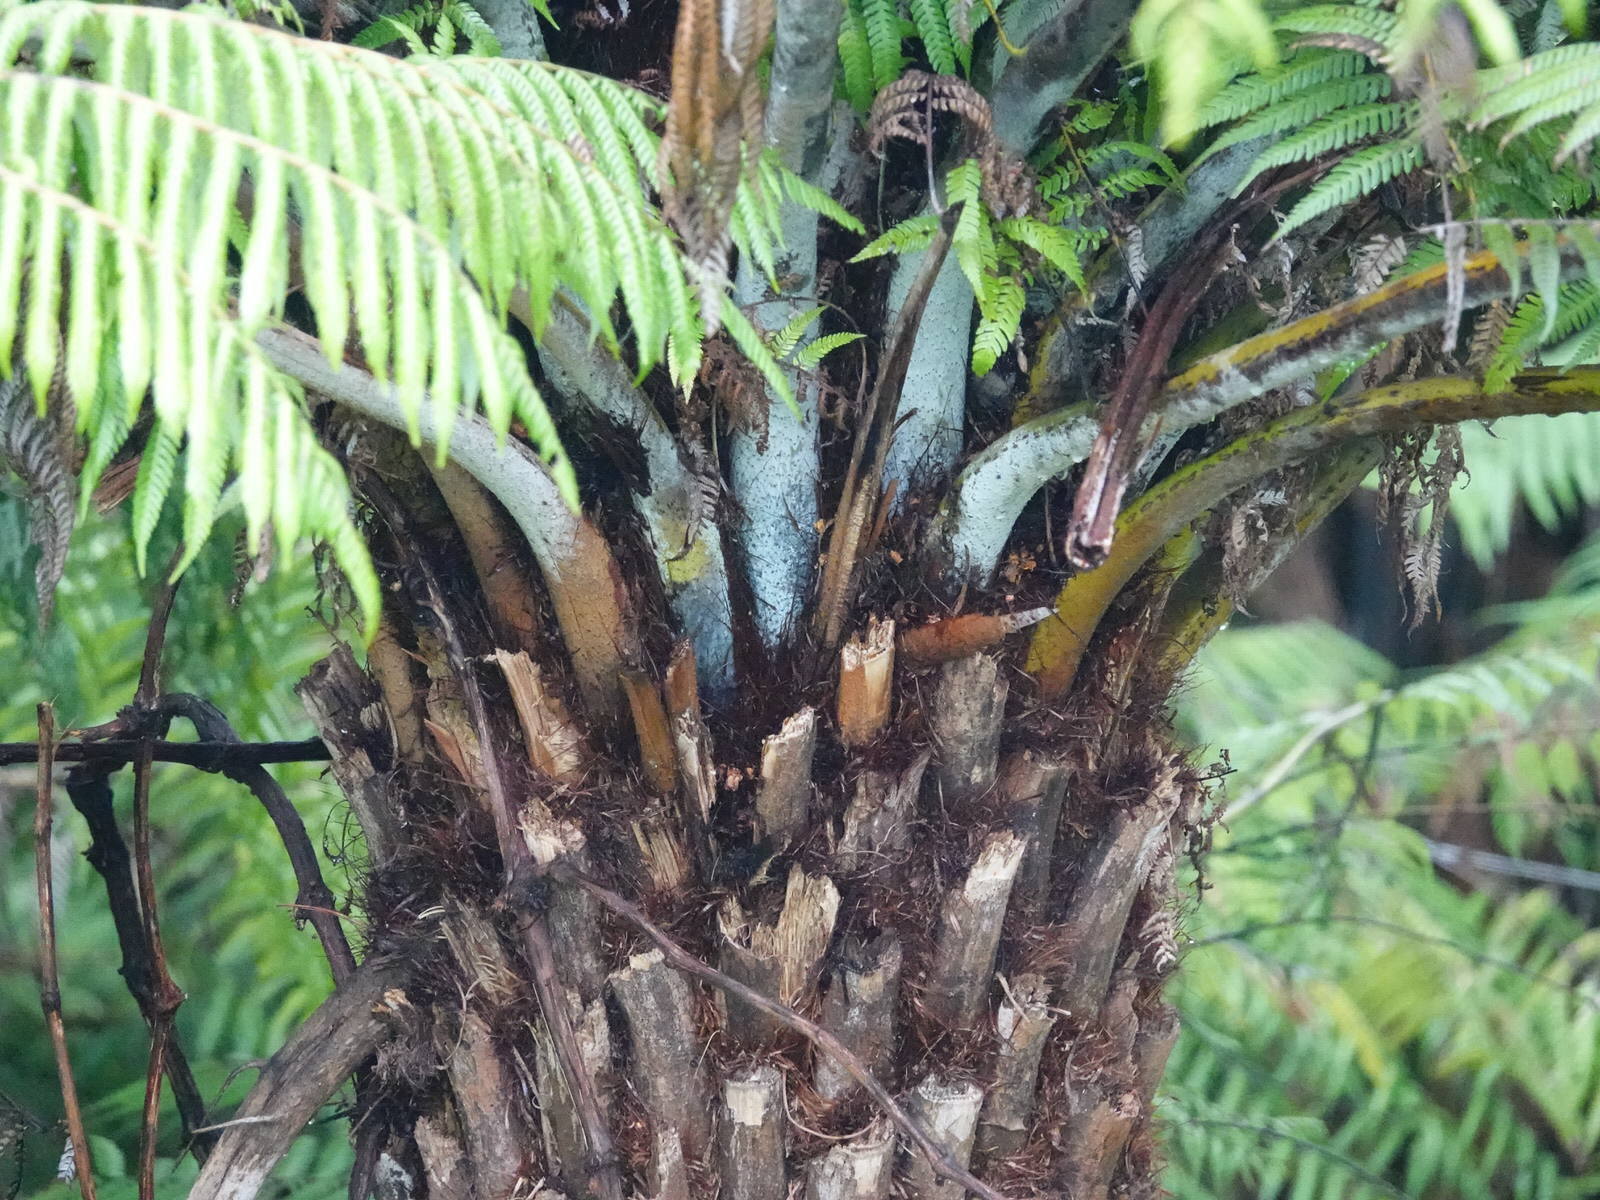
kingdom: Plantae
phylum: Tracheophyta
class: Polypodiopsida
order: Cyatheales
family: Cyatheaceae
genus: Alsophila
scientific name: Alsophila dealbata
